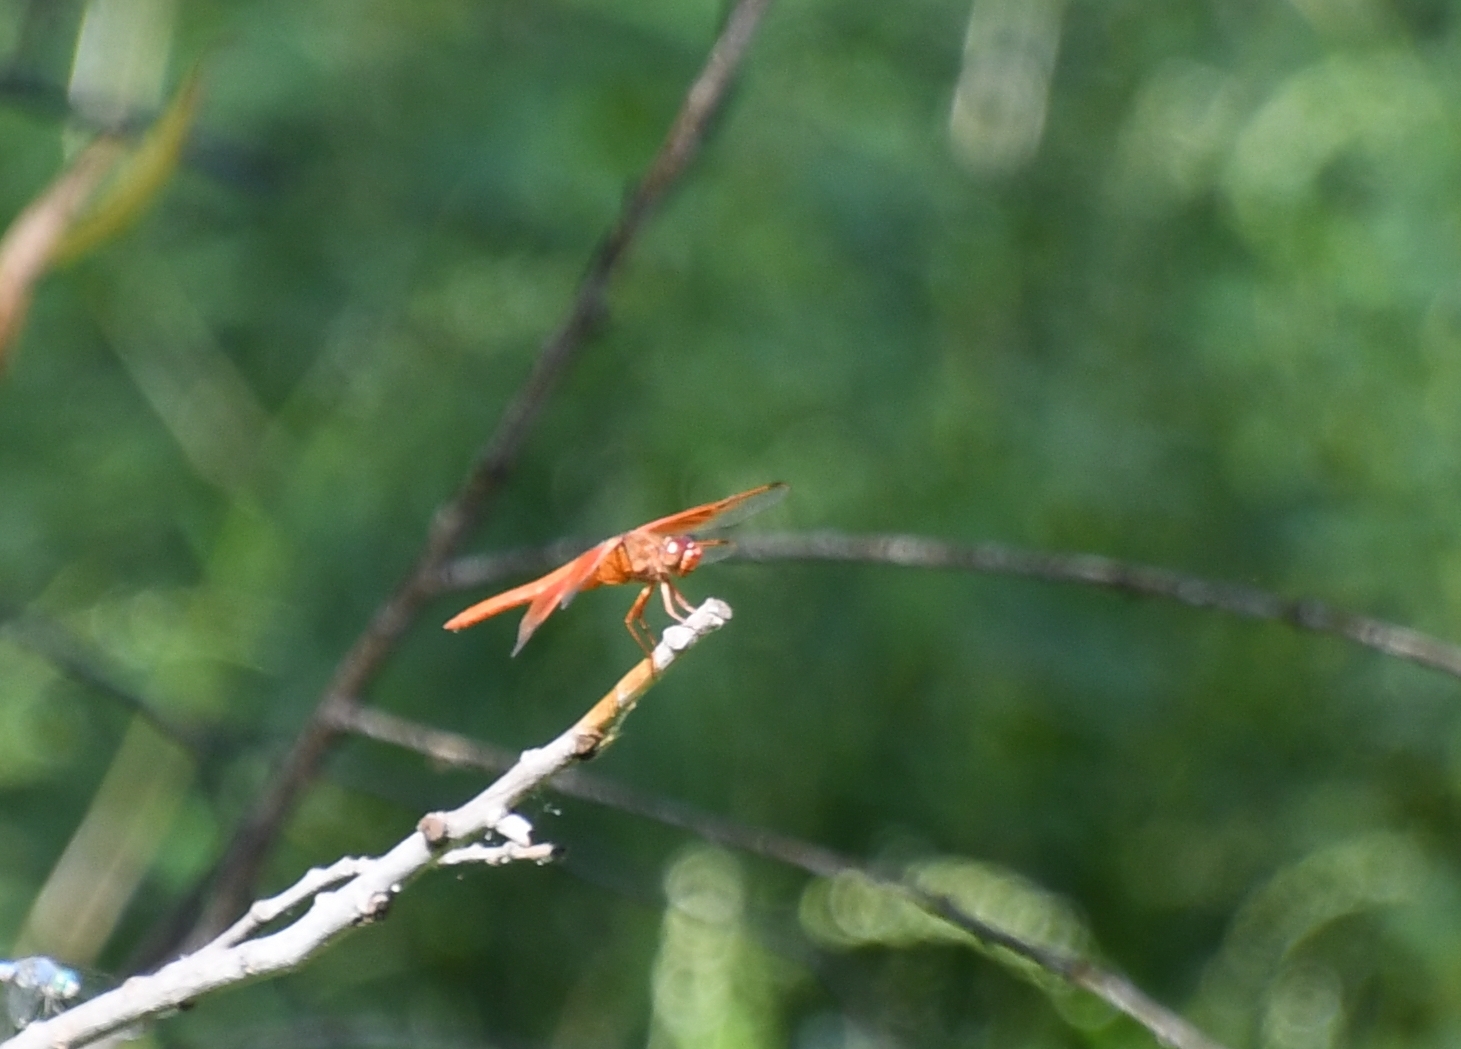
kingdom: Animalia
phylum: Arthropoda
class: Insecta
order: Odonata
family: Libellulidae
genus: Libellula
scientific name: Libellula saturata
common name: Flame skimmer
